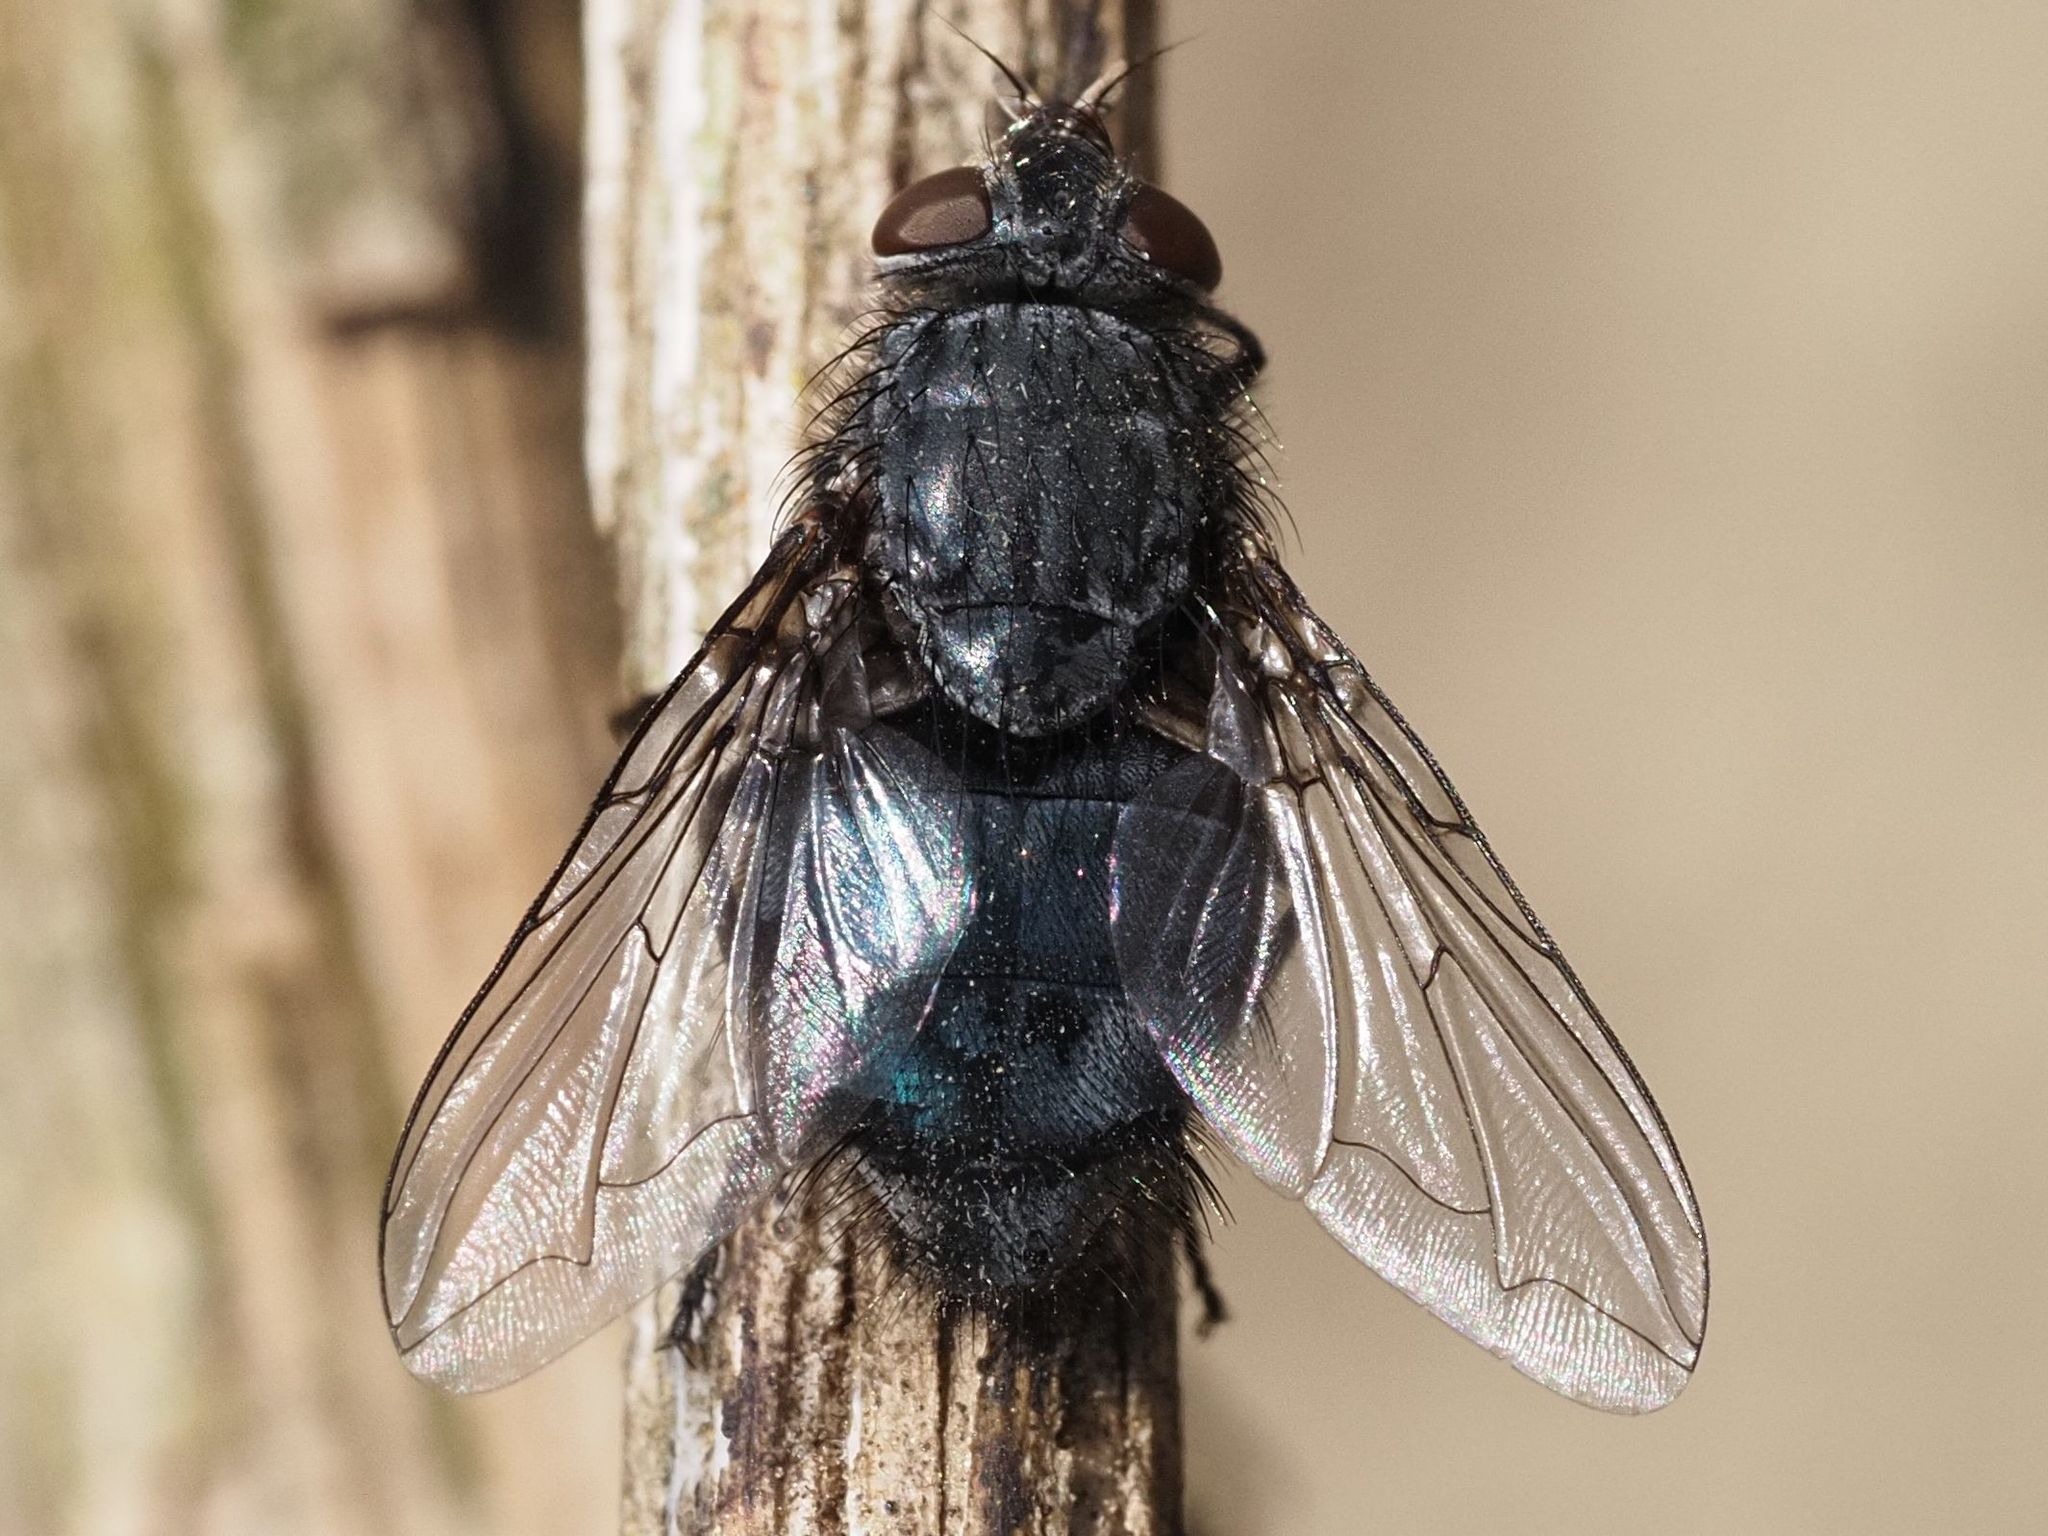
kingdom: Animalia
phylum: Arthropoda
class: Insecta
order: Diptera
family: Calliphoridae
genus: Calliphora
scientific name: Calliphora vicina
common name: Common blow flie
